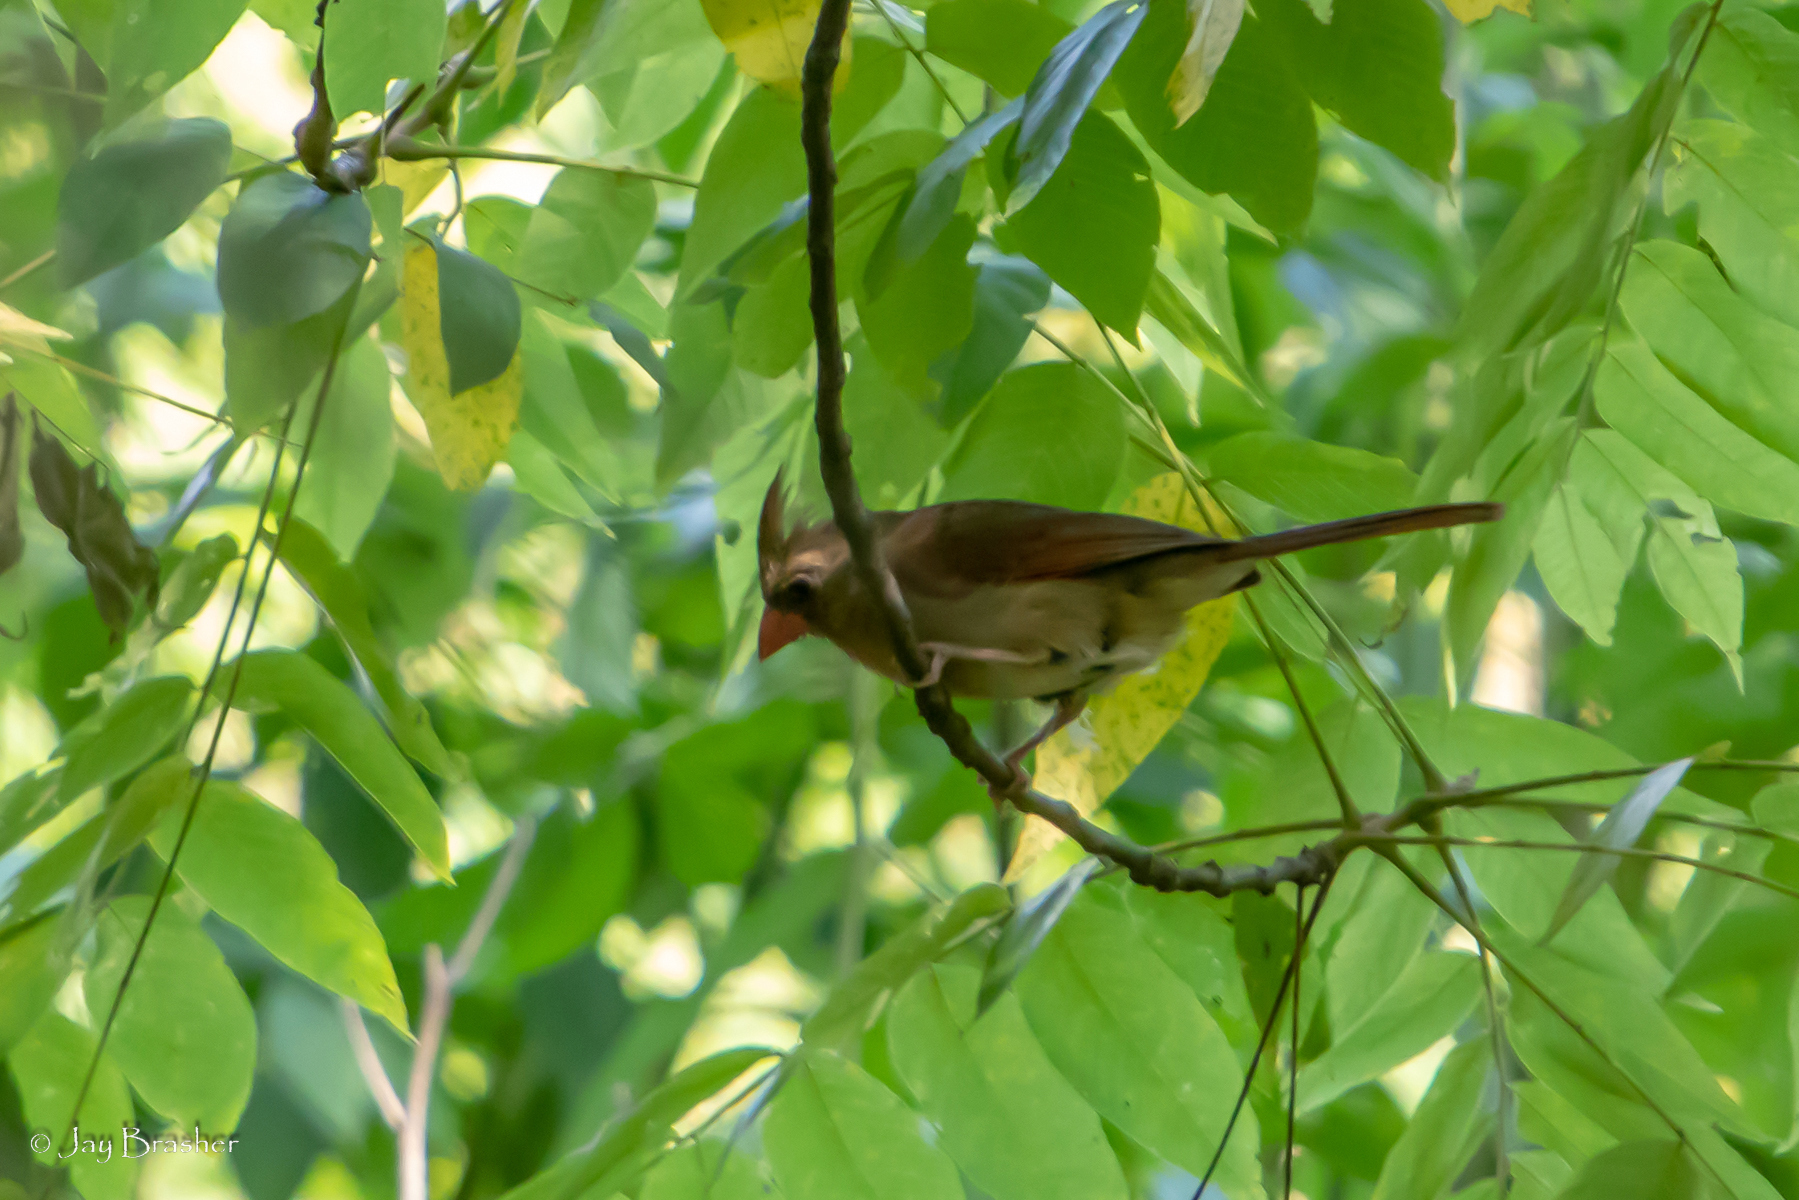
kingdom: Animalia
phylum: Chordata
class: Aves
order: Passeriformes
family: Cardinalidae
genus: Cardinalis
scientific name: Cardinalis cardinalis
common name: Northern cardinal
